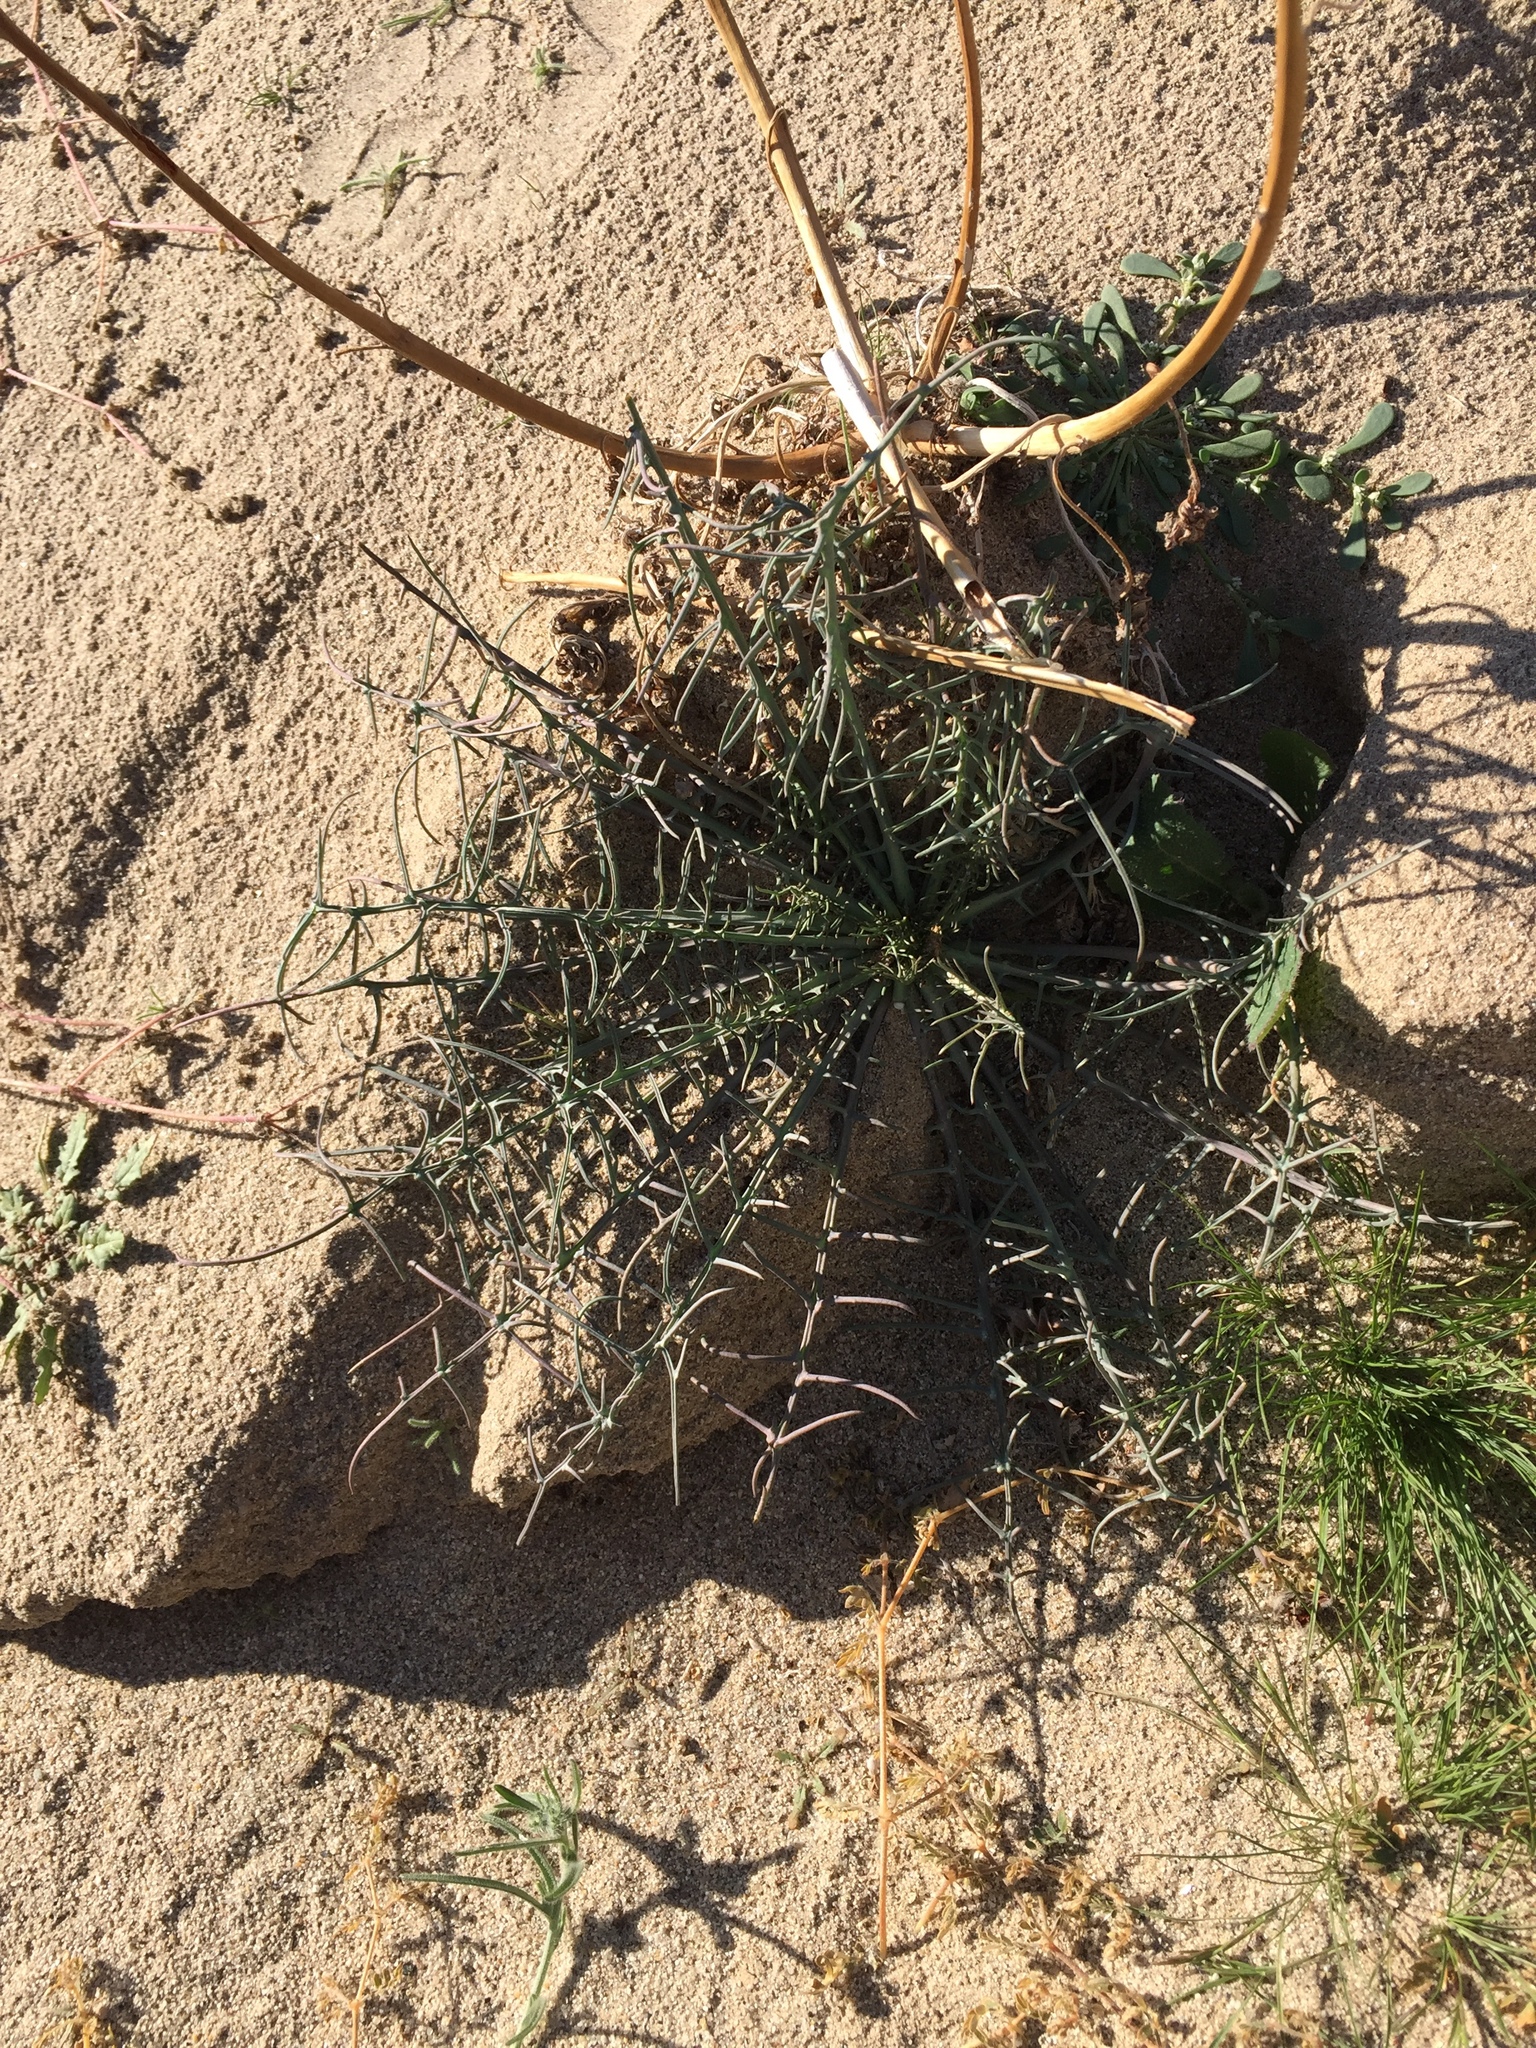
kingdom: Plantae
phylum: Tracheophyta
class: Magnoliopsida
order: Asterales
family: Asteraceae
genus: Calycoseris
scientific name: Calycoseris wrightii
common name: White tackstem
